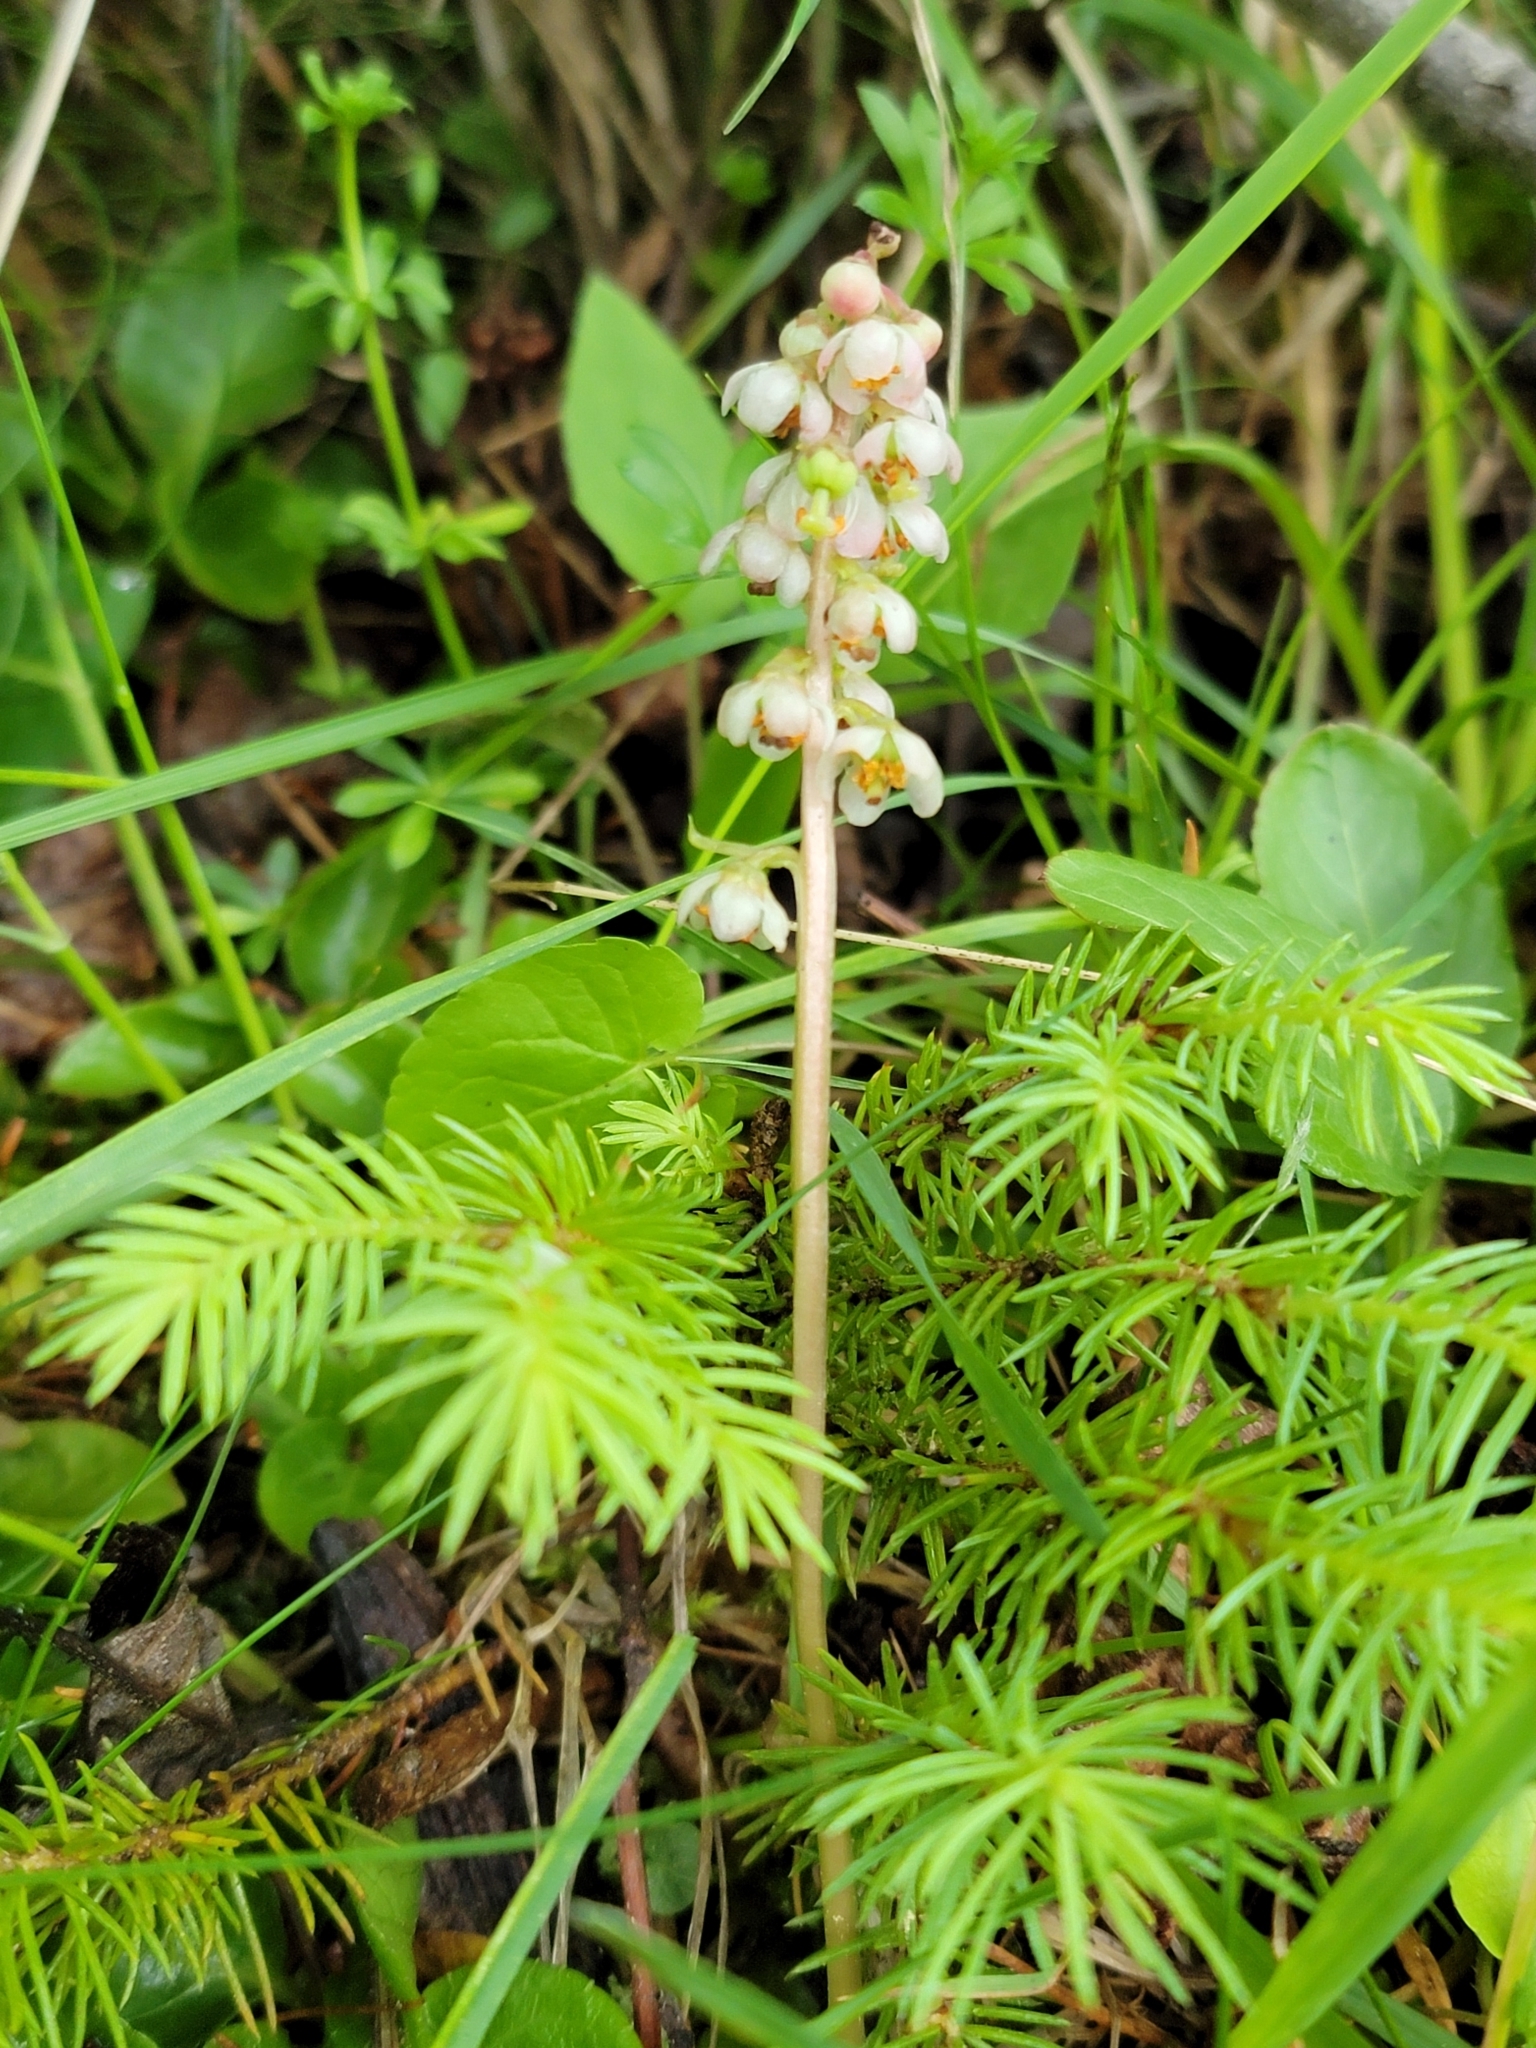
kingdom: Plantae
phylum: Tracheophyta
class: Magnoliopsida
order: Ericales
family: Ericaceae
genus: Pyrola
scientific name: Pyrola minor
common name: Common wintergreen
